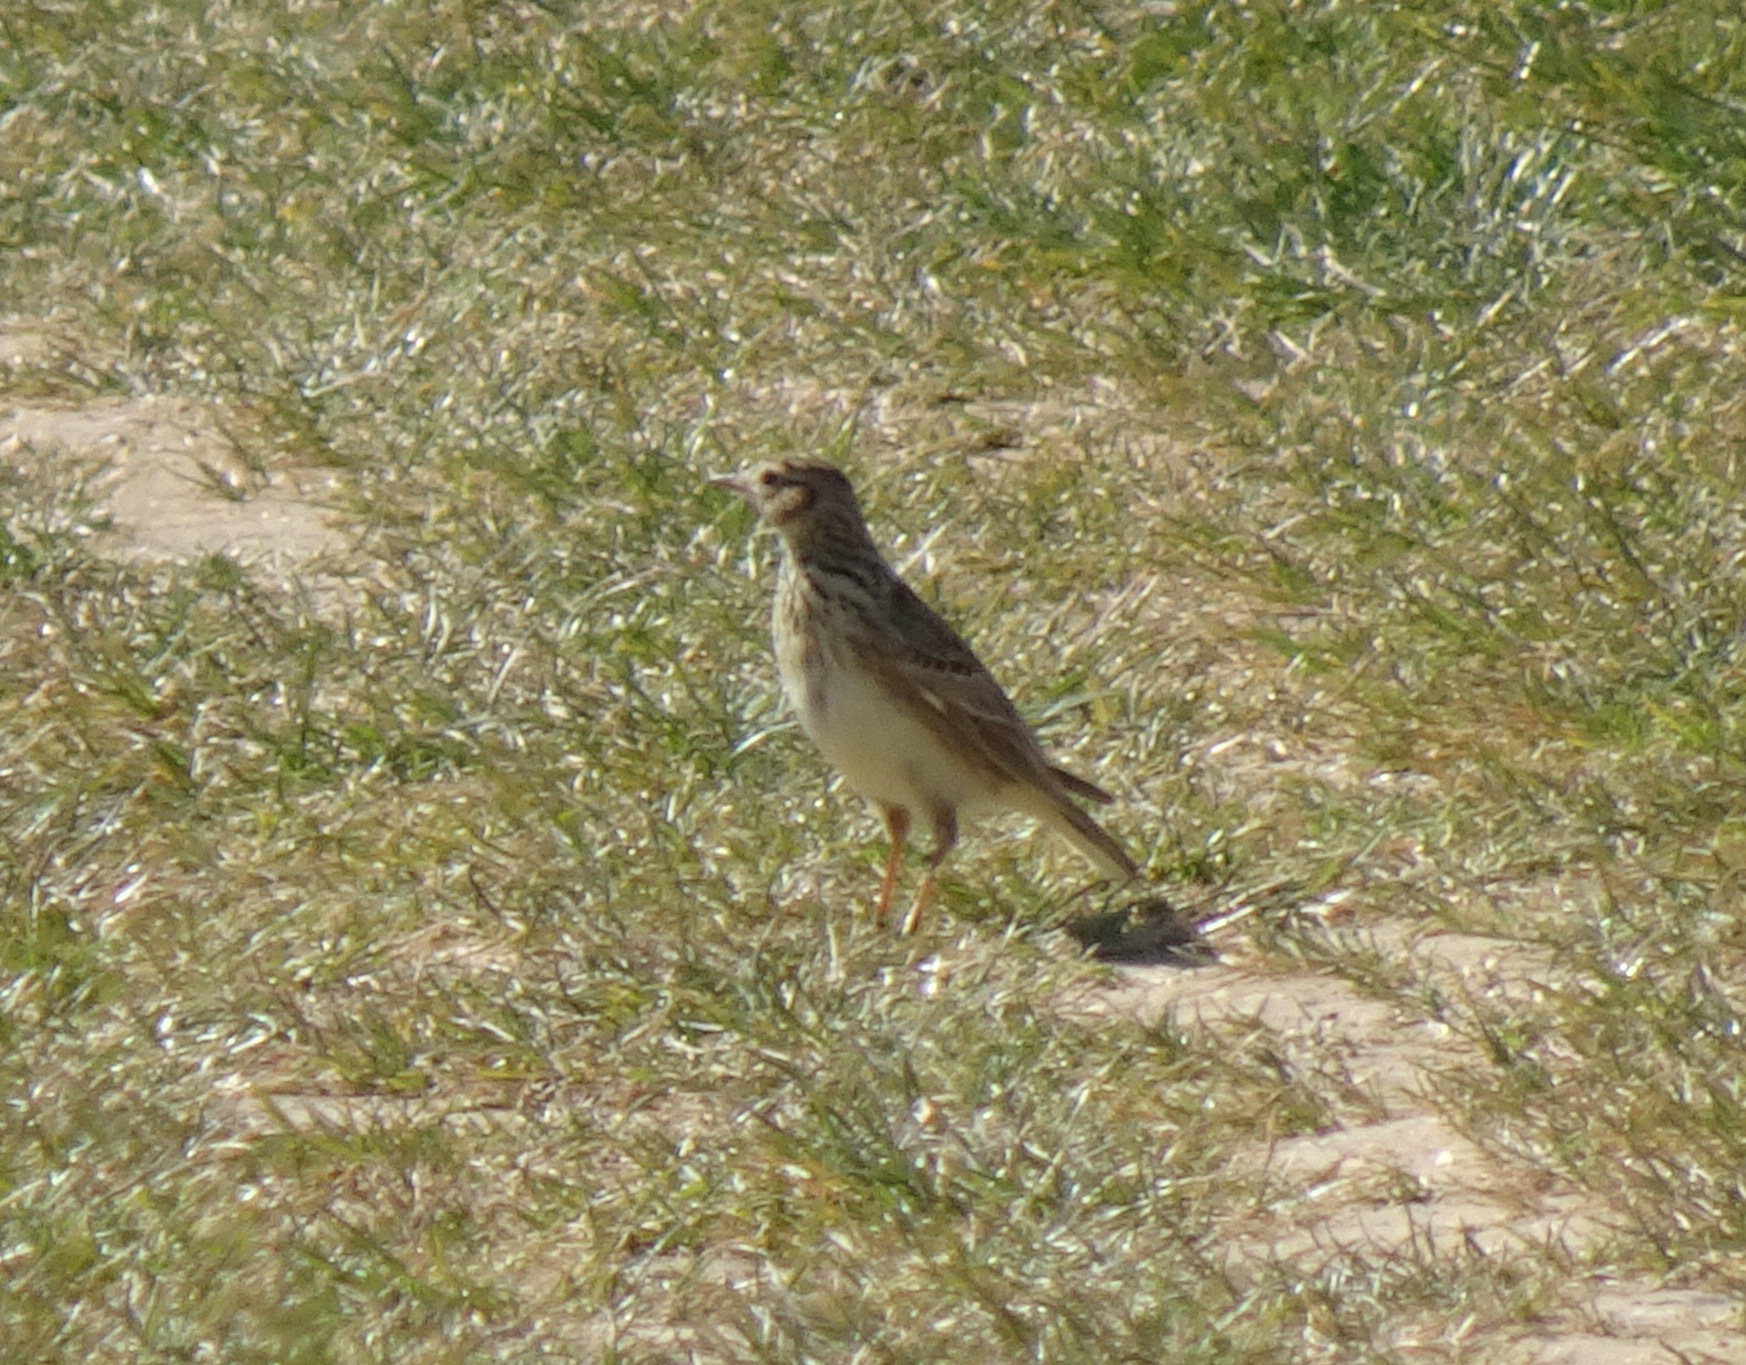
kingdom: Animalia
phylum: Chordata
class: Aves
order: Passeriformes
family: Alaudidae
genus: Alauda
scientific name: Alauda arvensis
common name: Eurasian skylark
